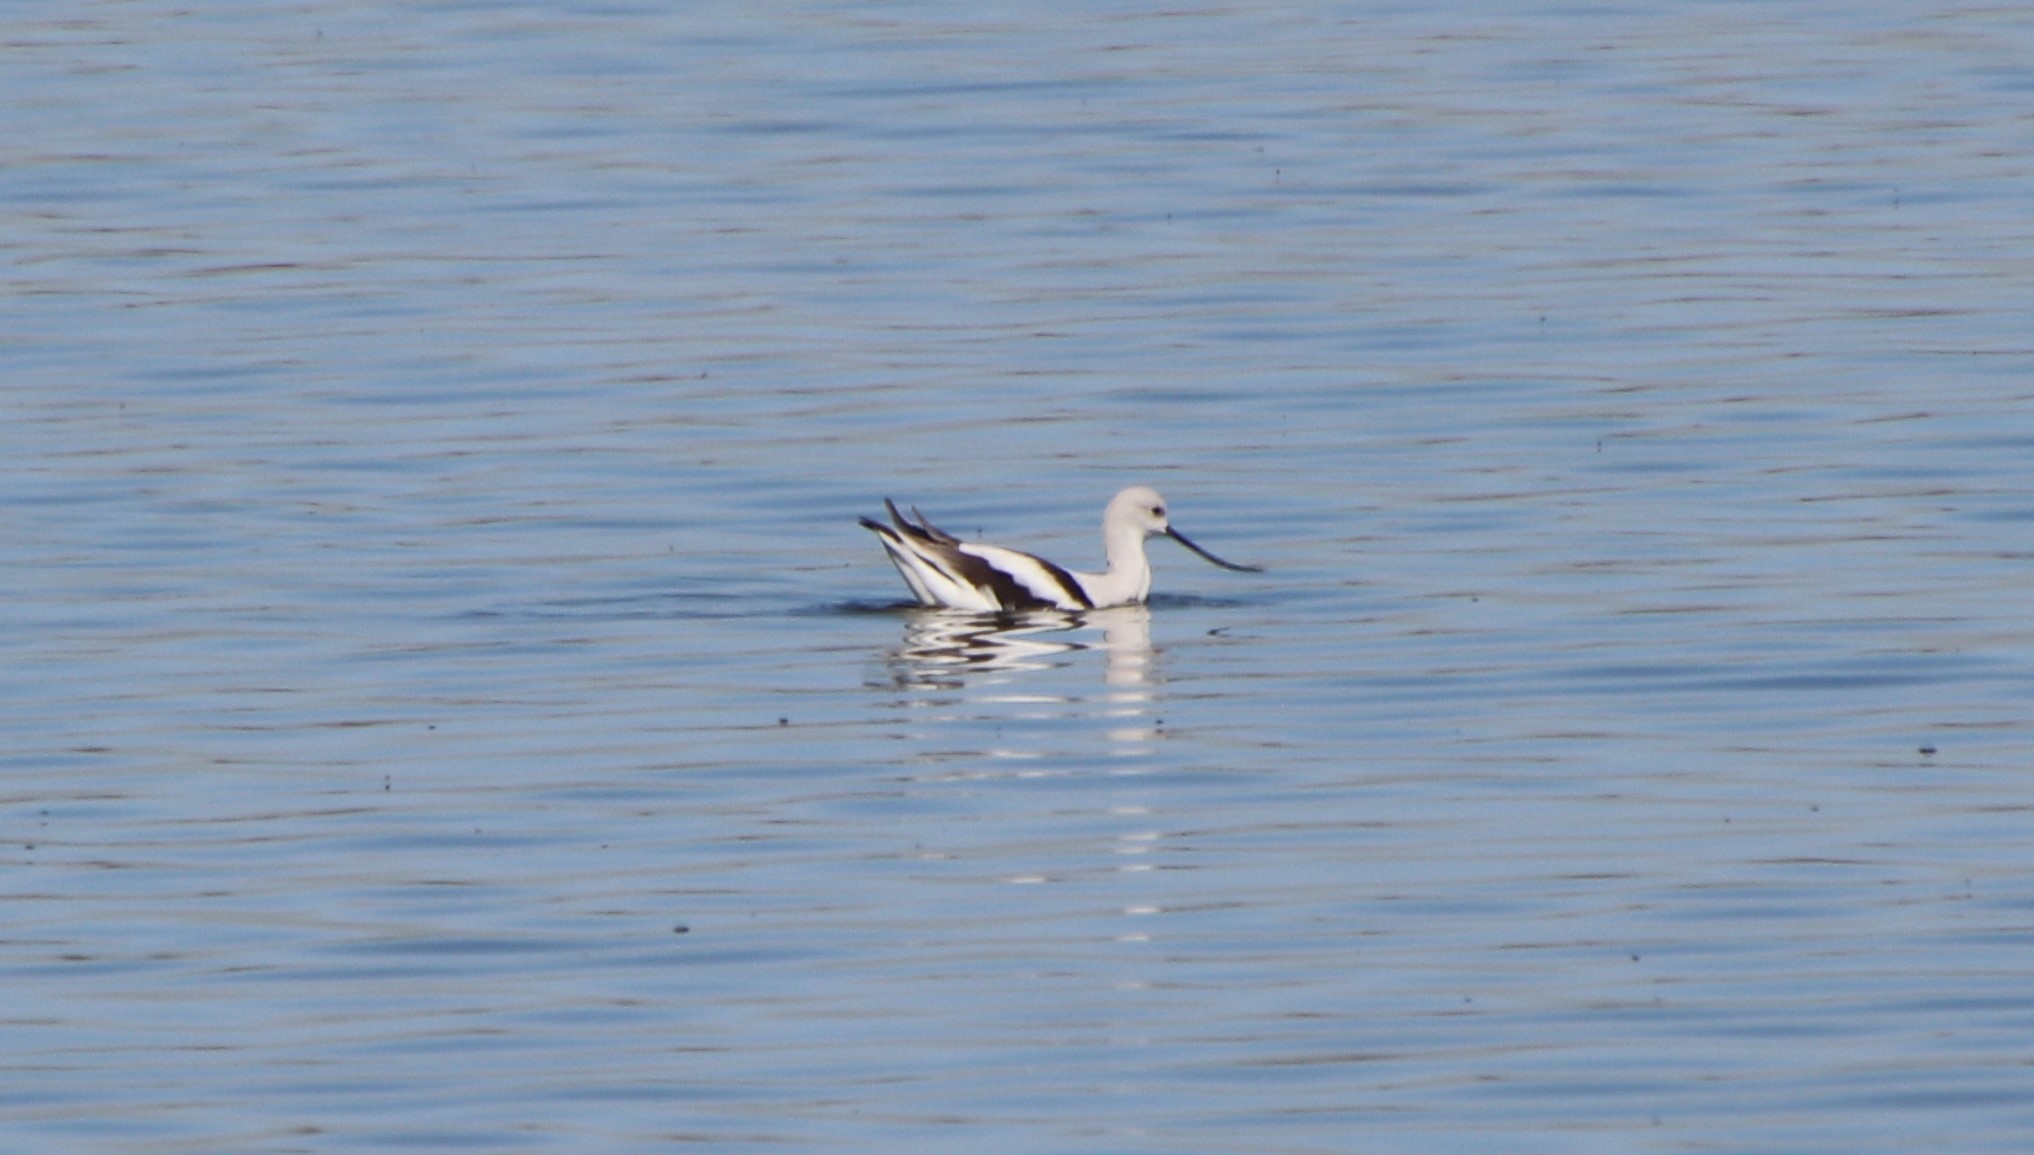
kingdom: Animalia
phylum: Chordata
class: Aves
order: Charadriiformes
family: Recurvirostridae
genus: Recurvirostra
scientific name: Recurvirostra americana
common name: American avocet
